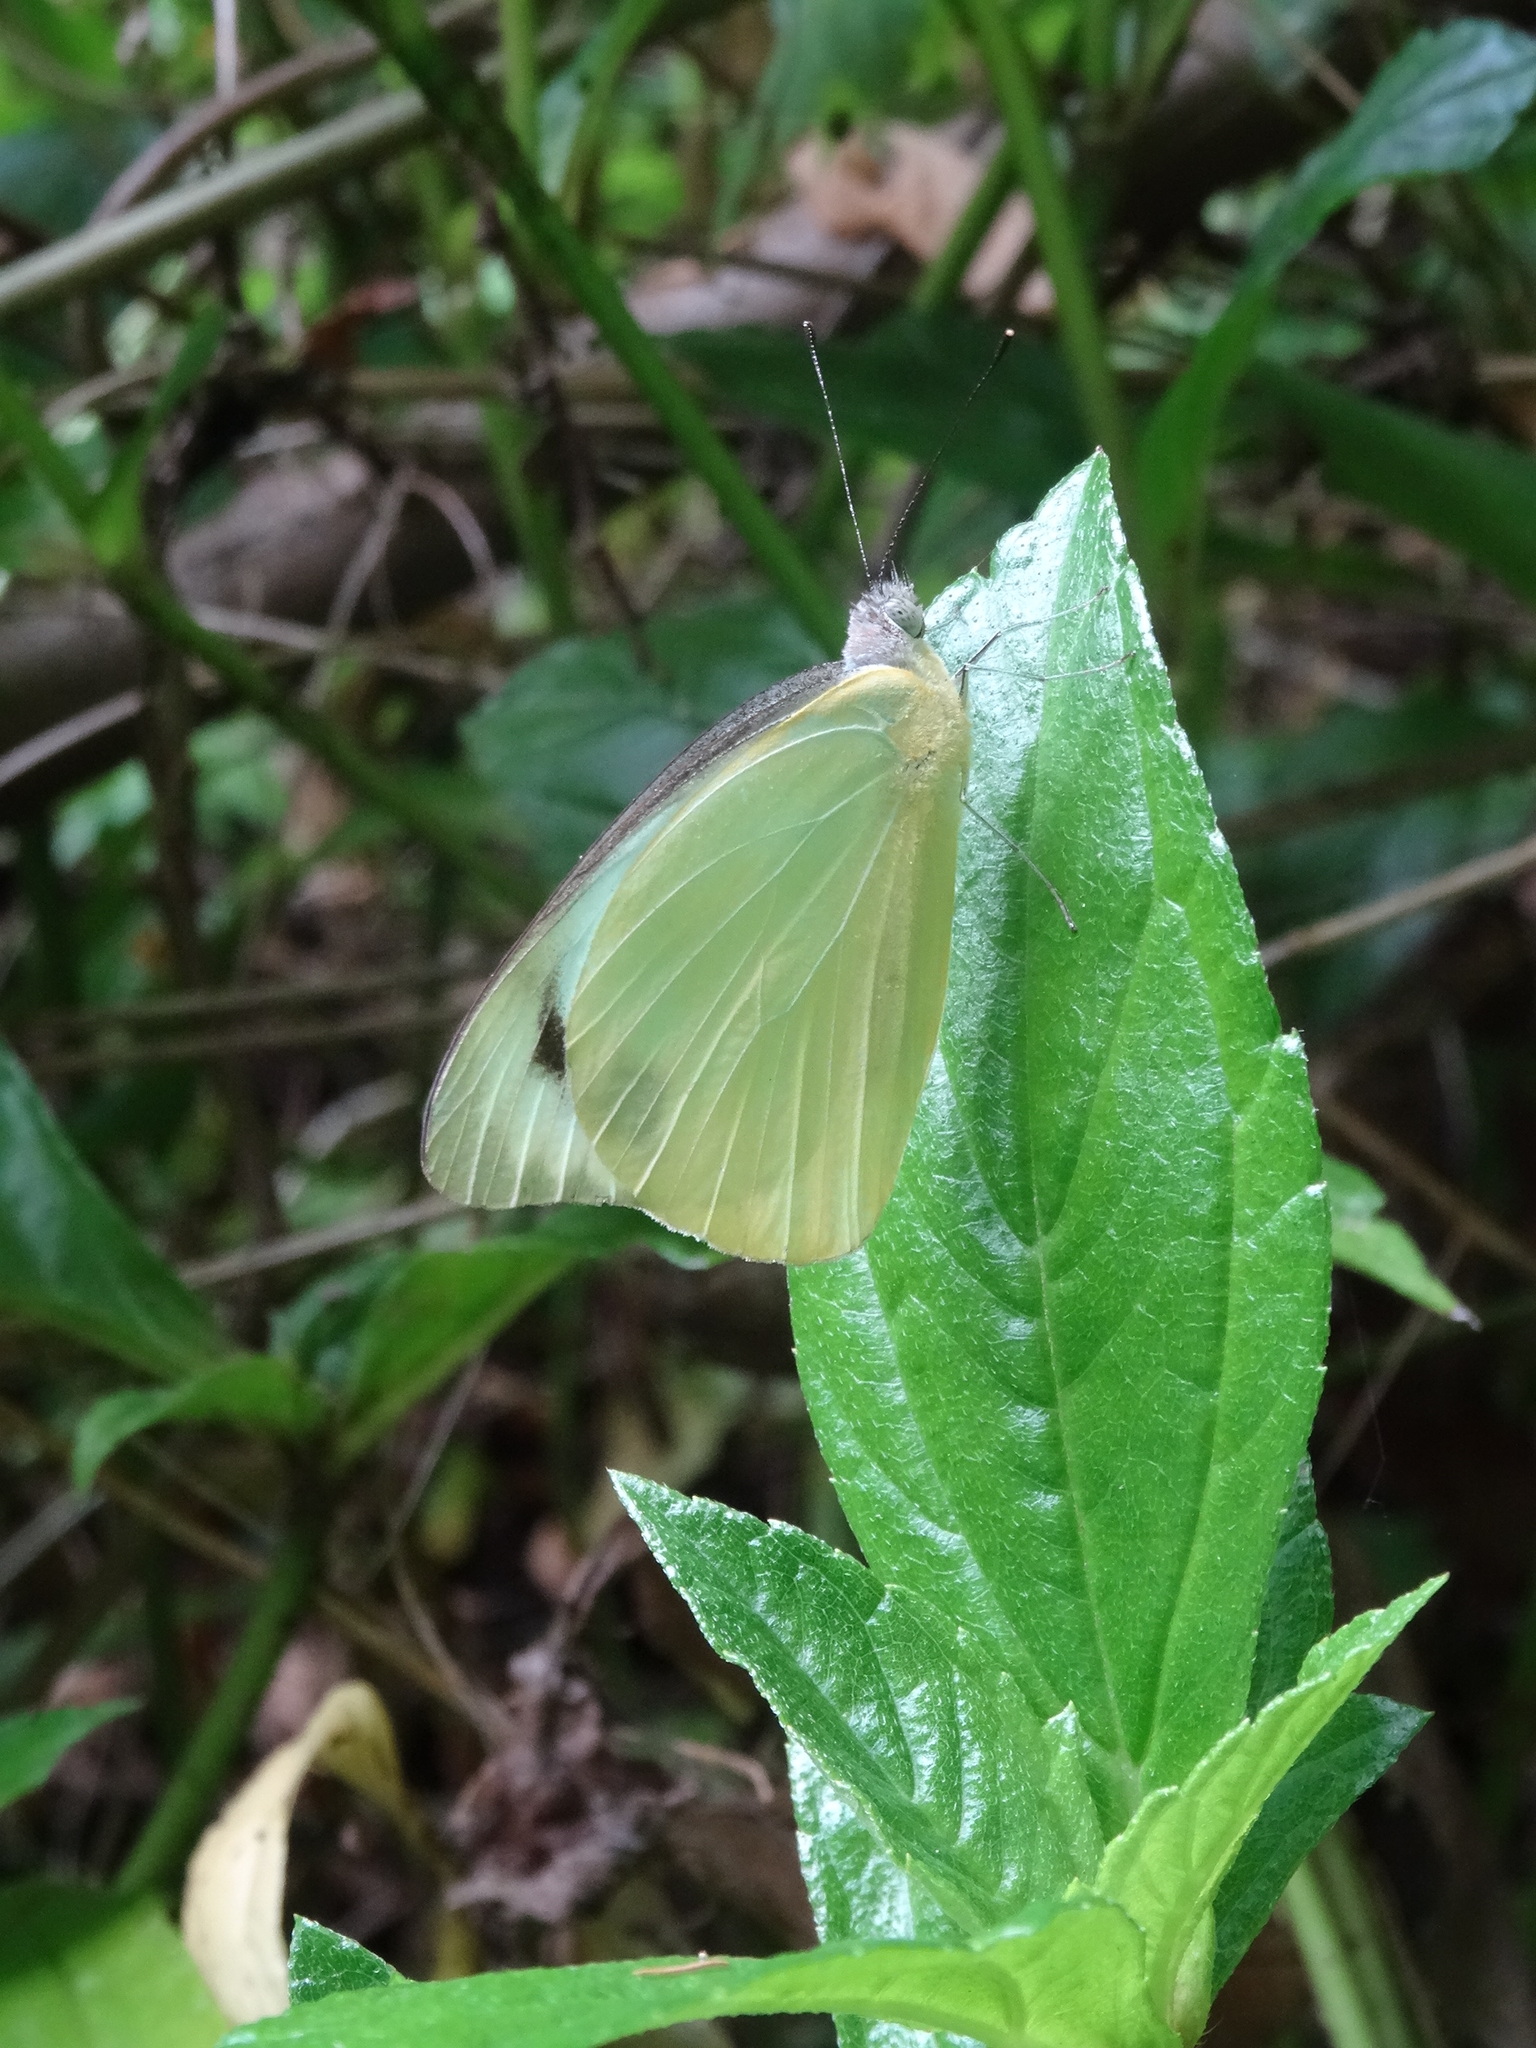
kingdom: Animalia
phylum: Arthropoda
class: Insecta
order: Lepidoptera
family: Pieridae
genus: Appias
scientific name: Appias paulina
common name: Ceylon lesser albatross
